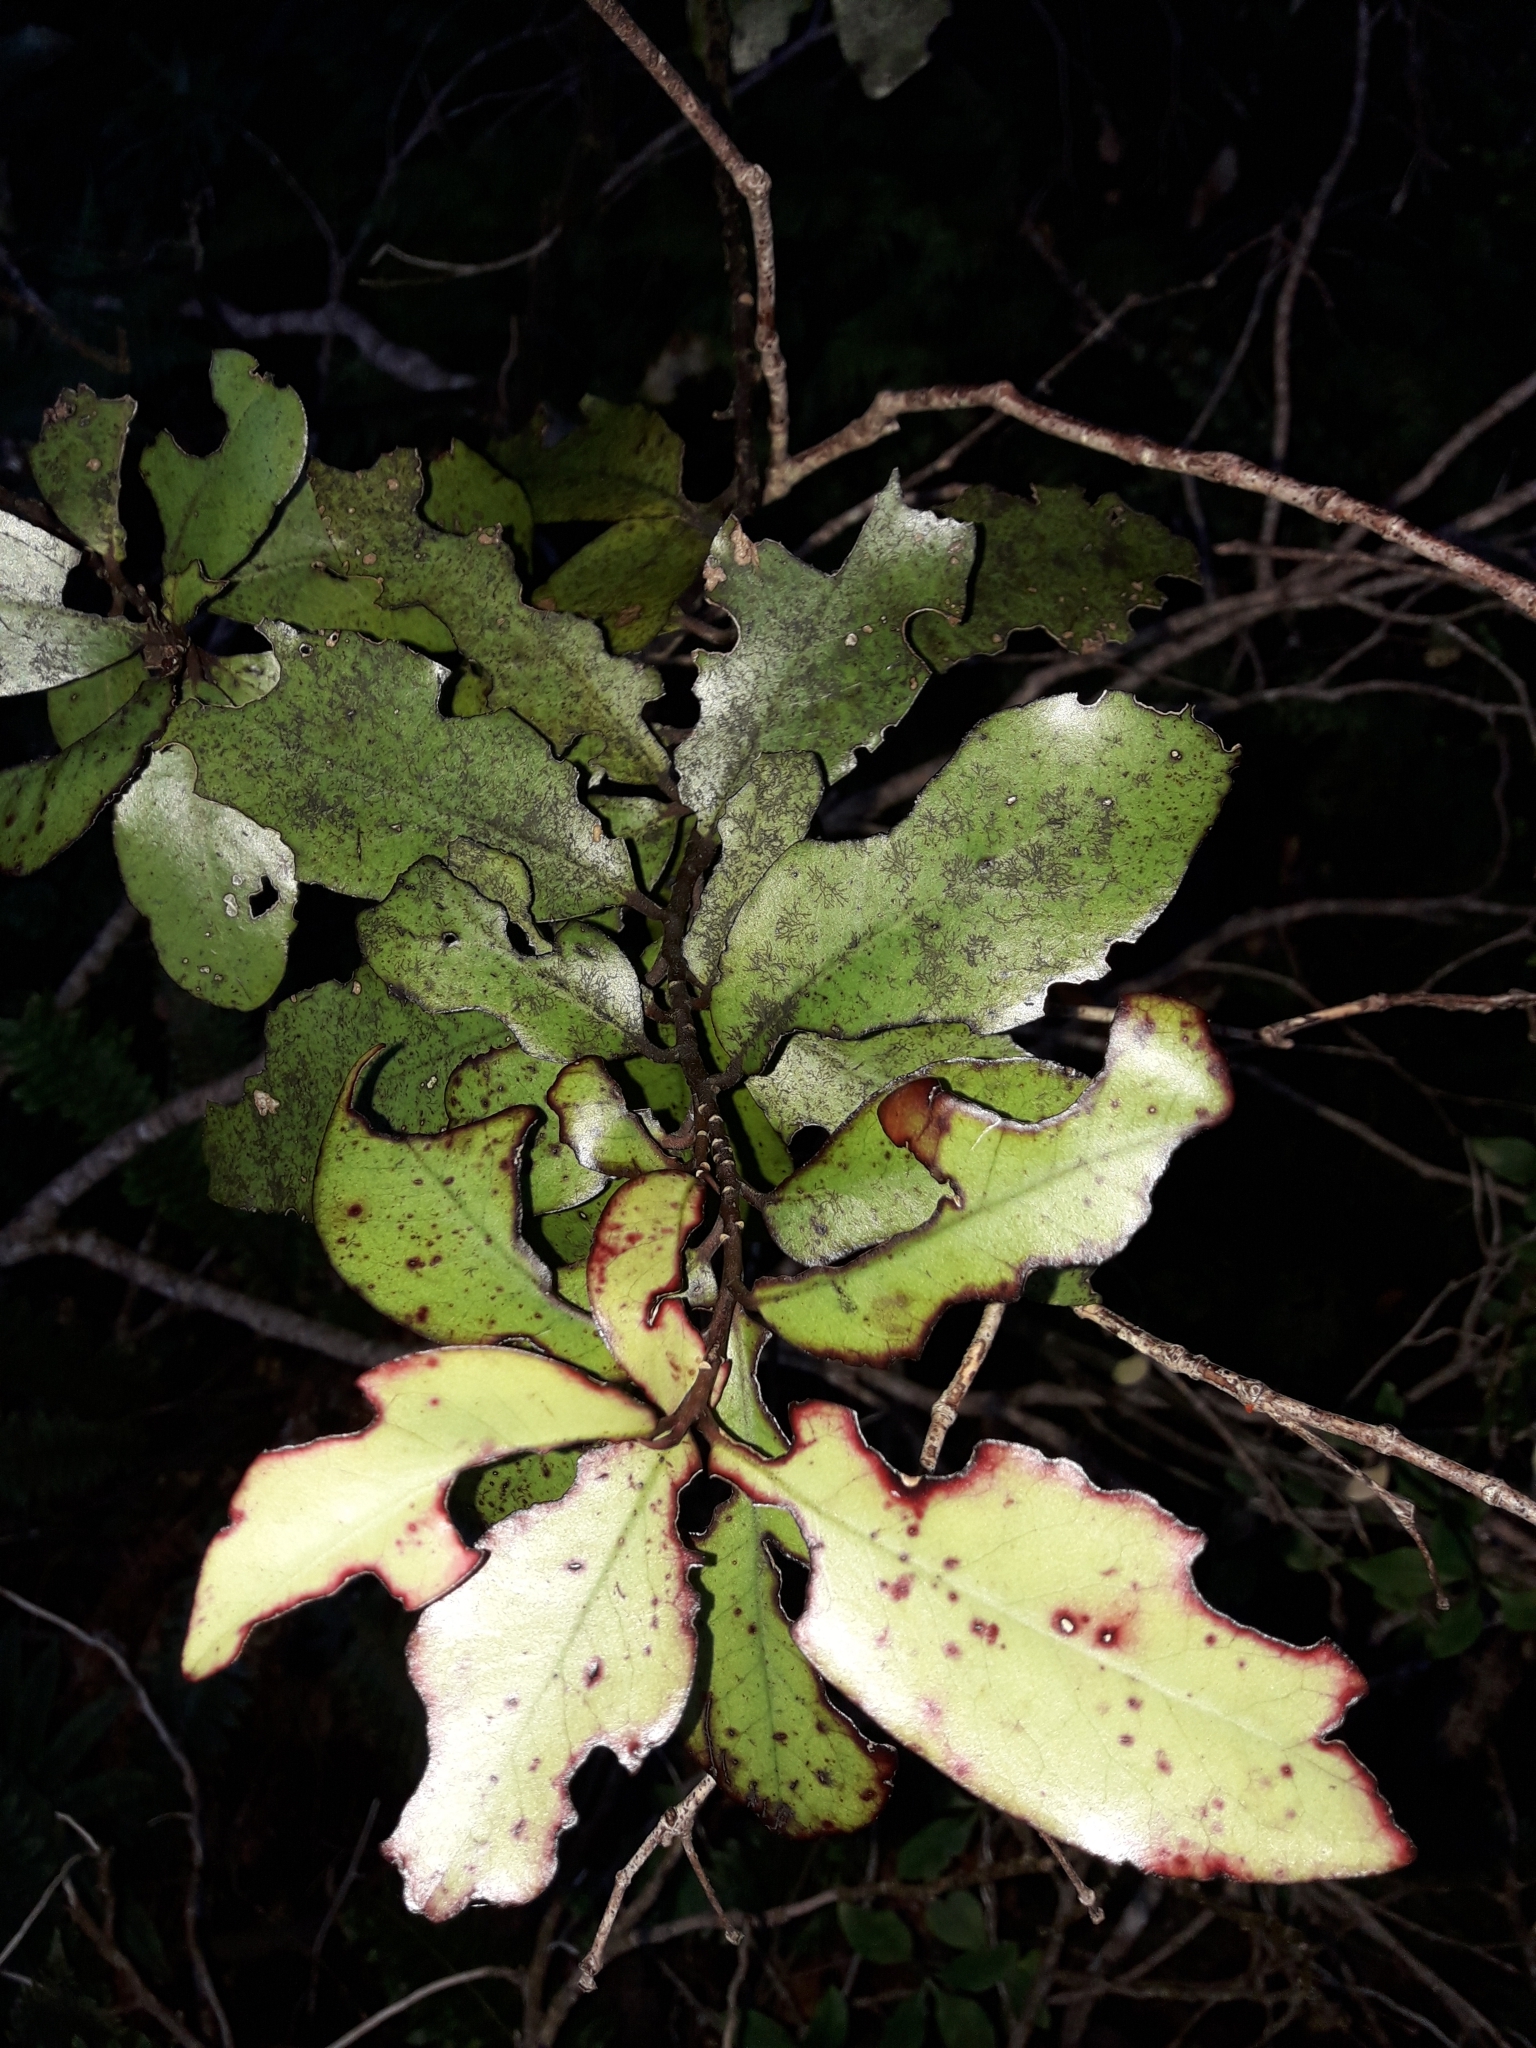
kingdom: Plantae
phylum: Tracheophyta
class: Magnoliopsida
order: Canellales
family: Winteraceae
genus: Pseudowintera
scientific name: Pseudowintera colorata
